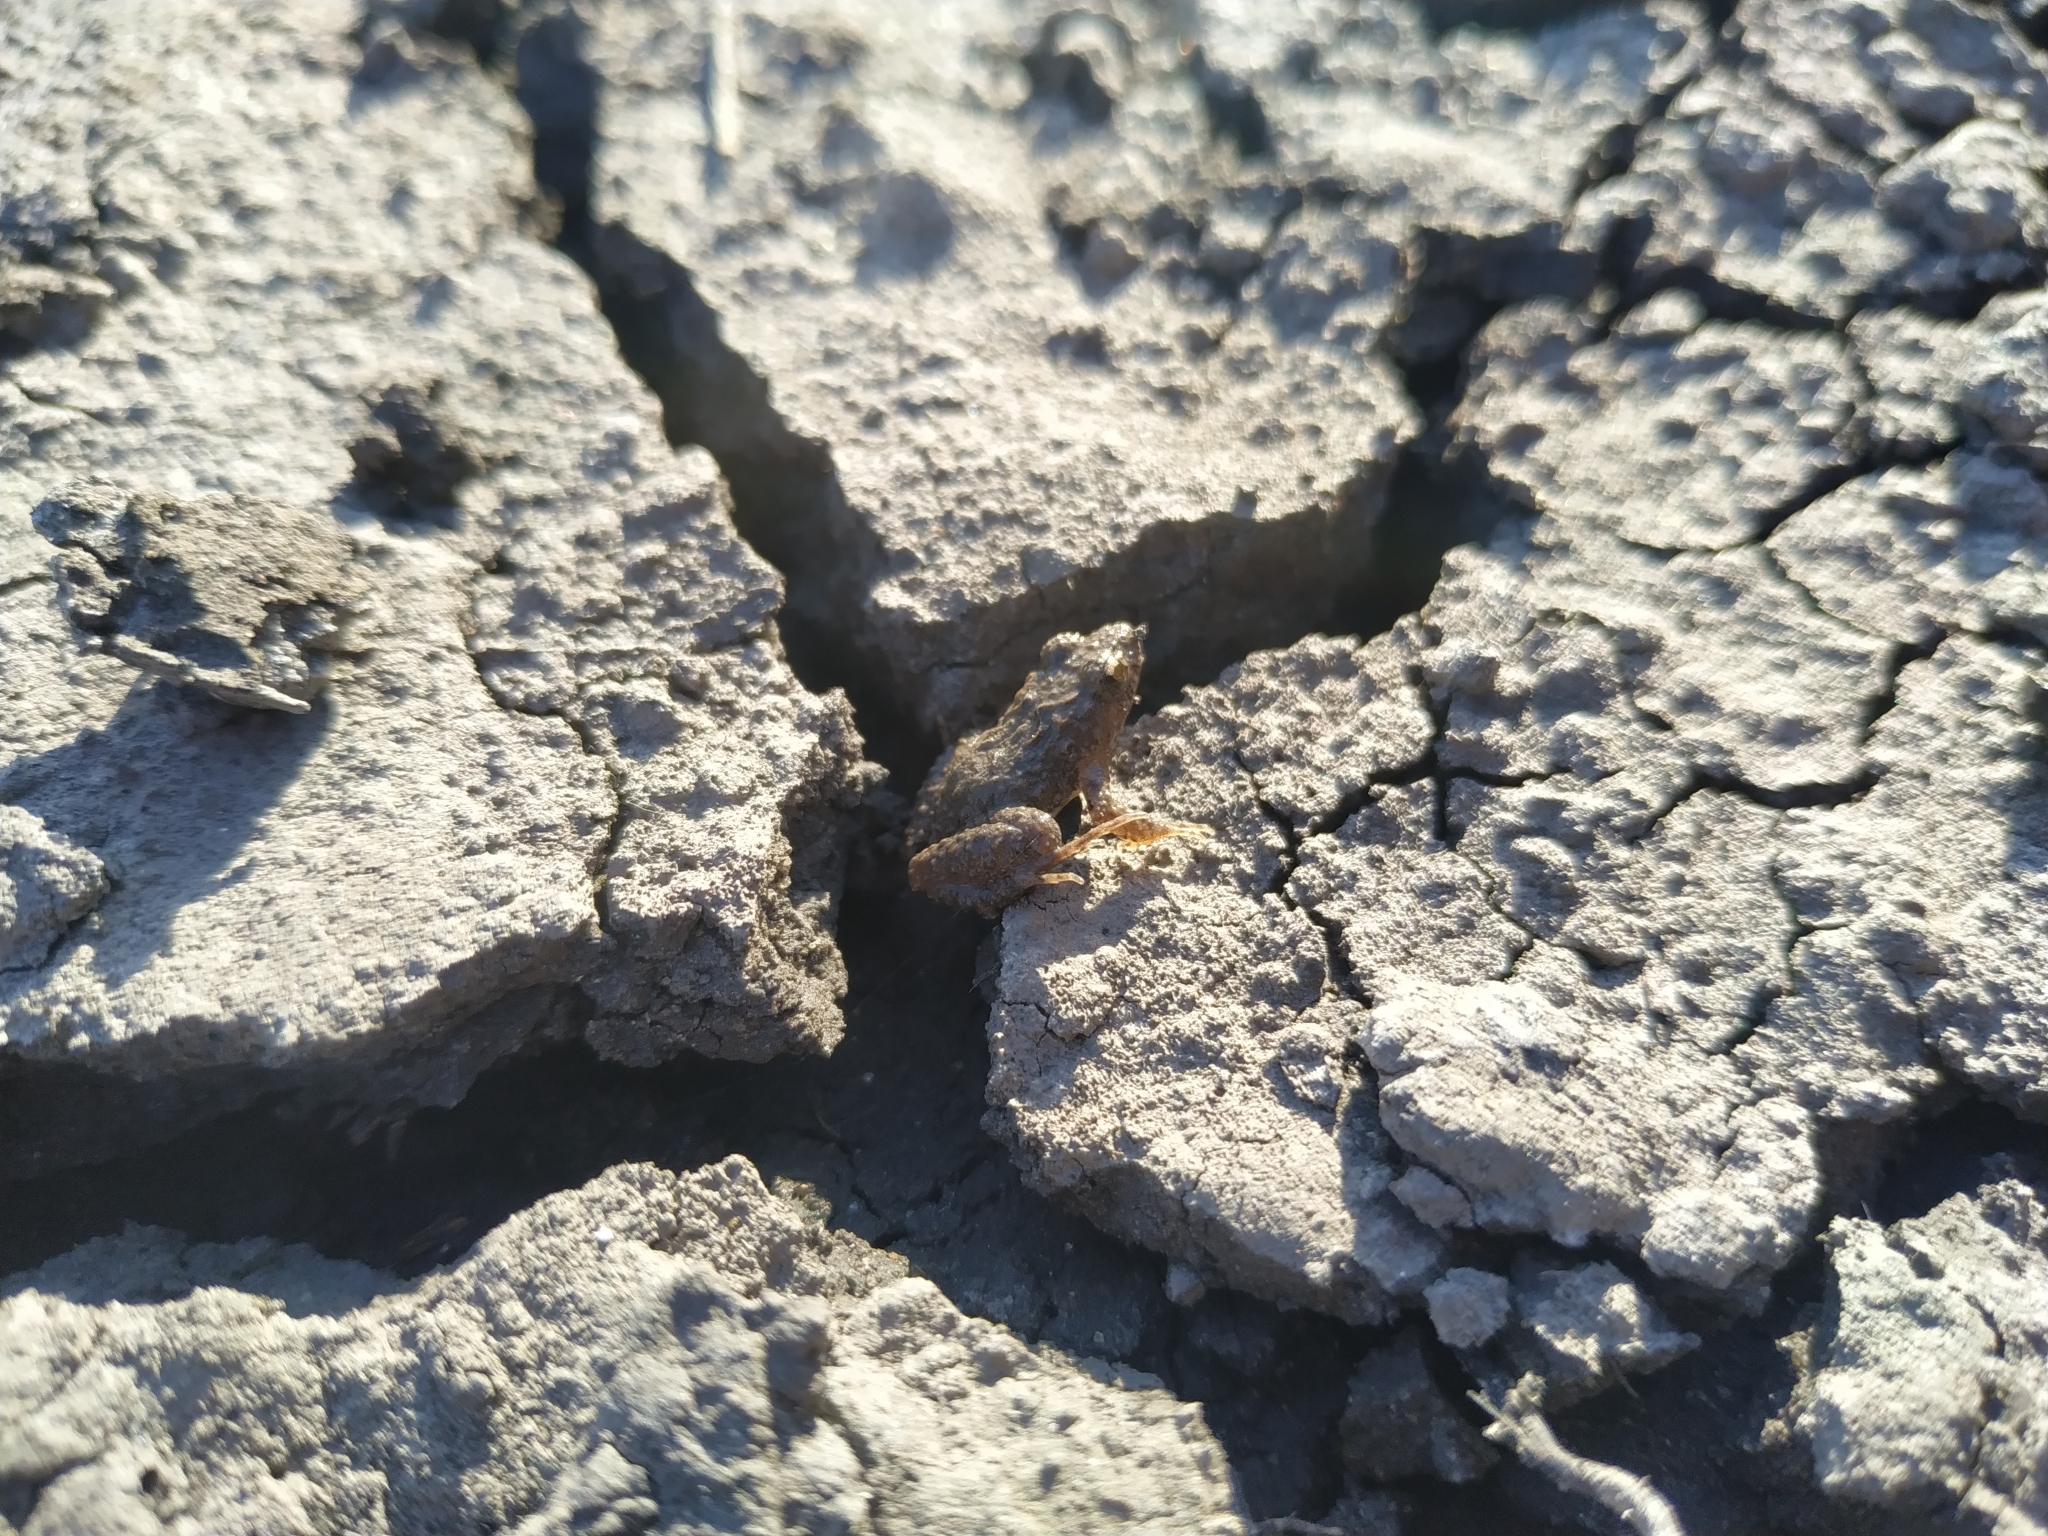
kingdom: Animalia
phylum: Chordata
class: Amphibia
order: Anura
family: Leptodactylidae
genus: Pseudopaludicola
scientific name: Pseudopaludicola falcipes
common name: Hensel’s swamp frog
